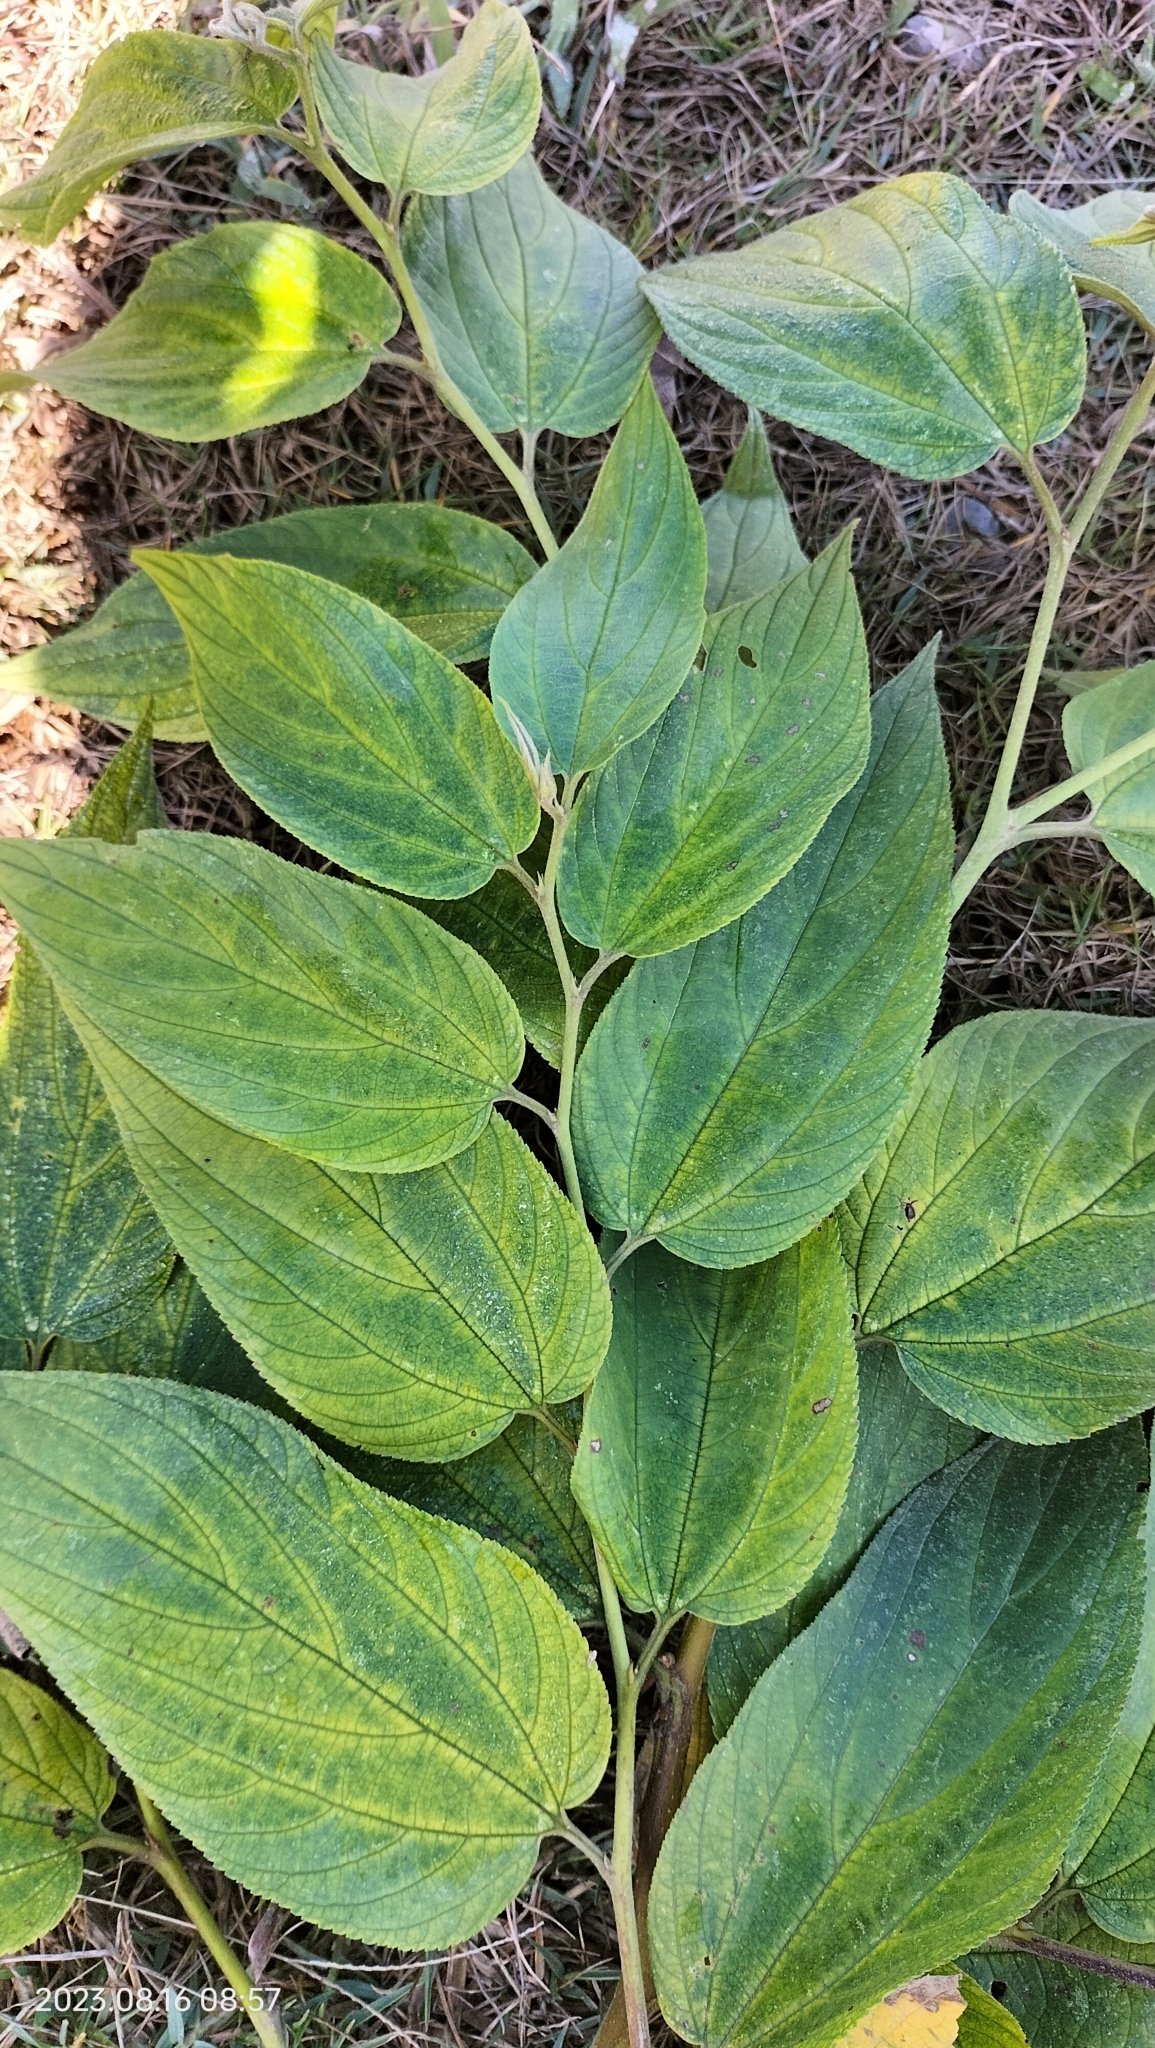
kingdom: Plantae
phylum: Tracheophyta
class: Magnoliopsida
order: Rosales
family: Cannabaceae
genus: Trema
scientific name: Trema micranthum
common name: Jamaican nettletree
